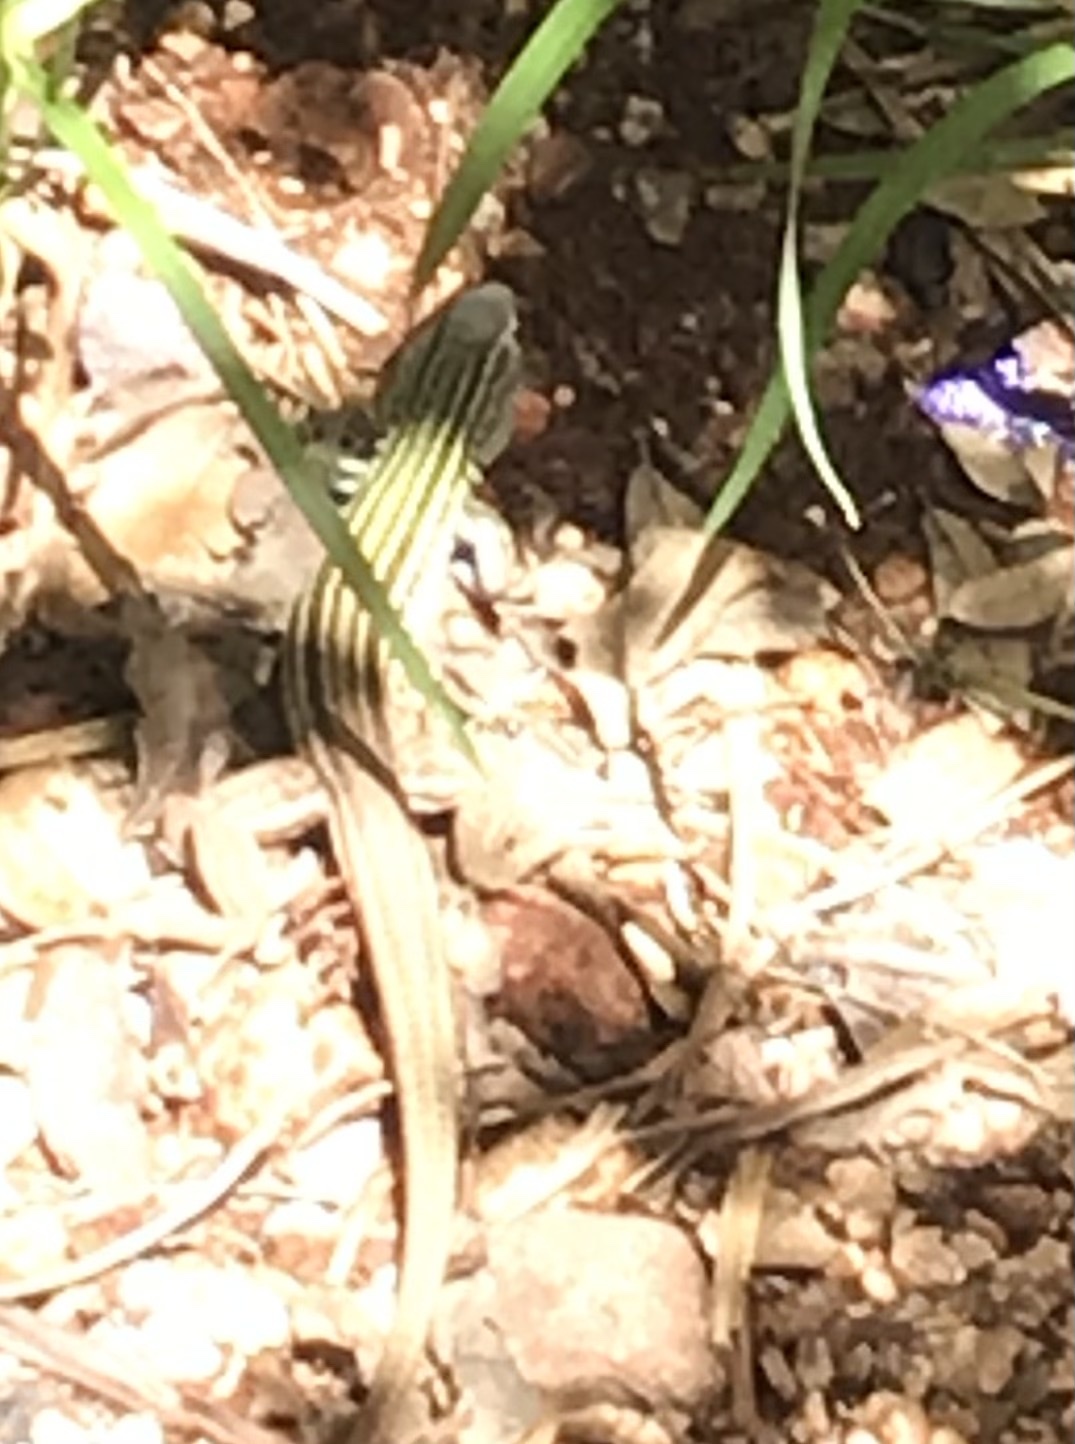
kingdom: Animalia
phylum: Chordata
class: Squamata
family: Teiidae
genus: Aspidoscelis
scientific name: Aspidoscelis gularis
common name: Eastern spotted whiptail
